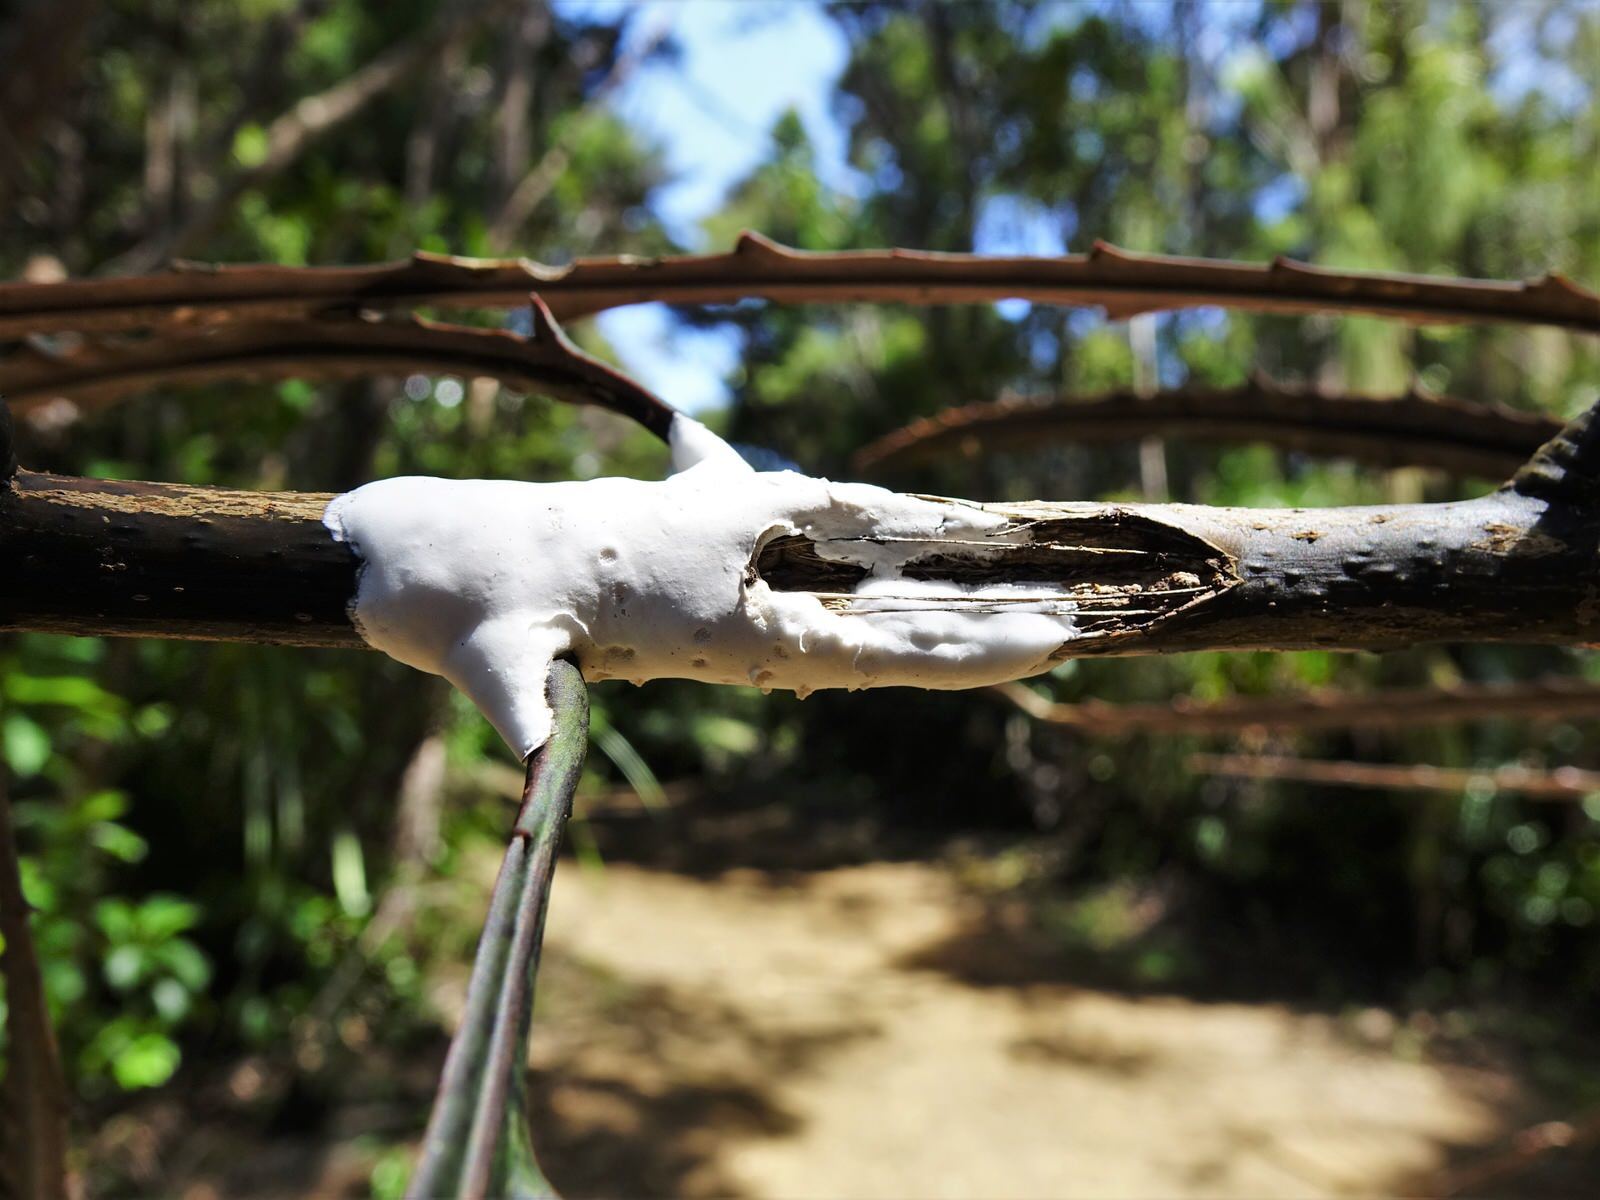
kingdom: Fungi
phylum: Basidiomycota
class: Pucciniomycetes
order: Septobasidiales
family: Septobasidiaceae
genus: Septobasidium
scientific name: Septobasidium simmondsii
